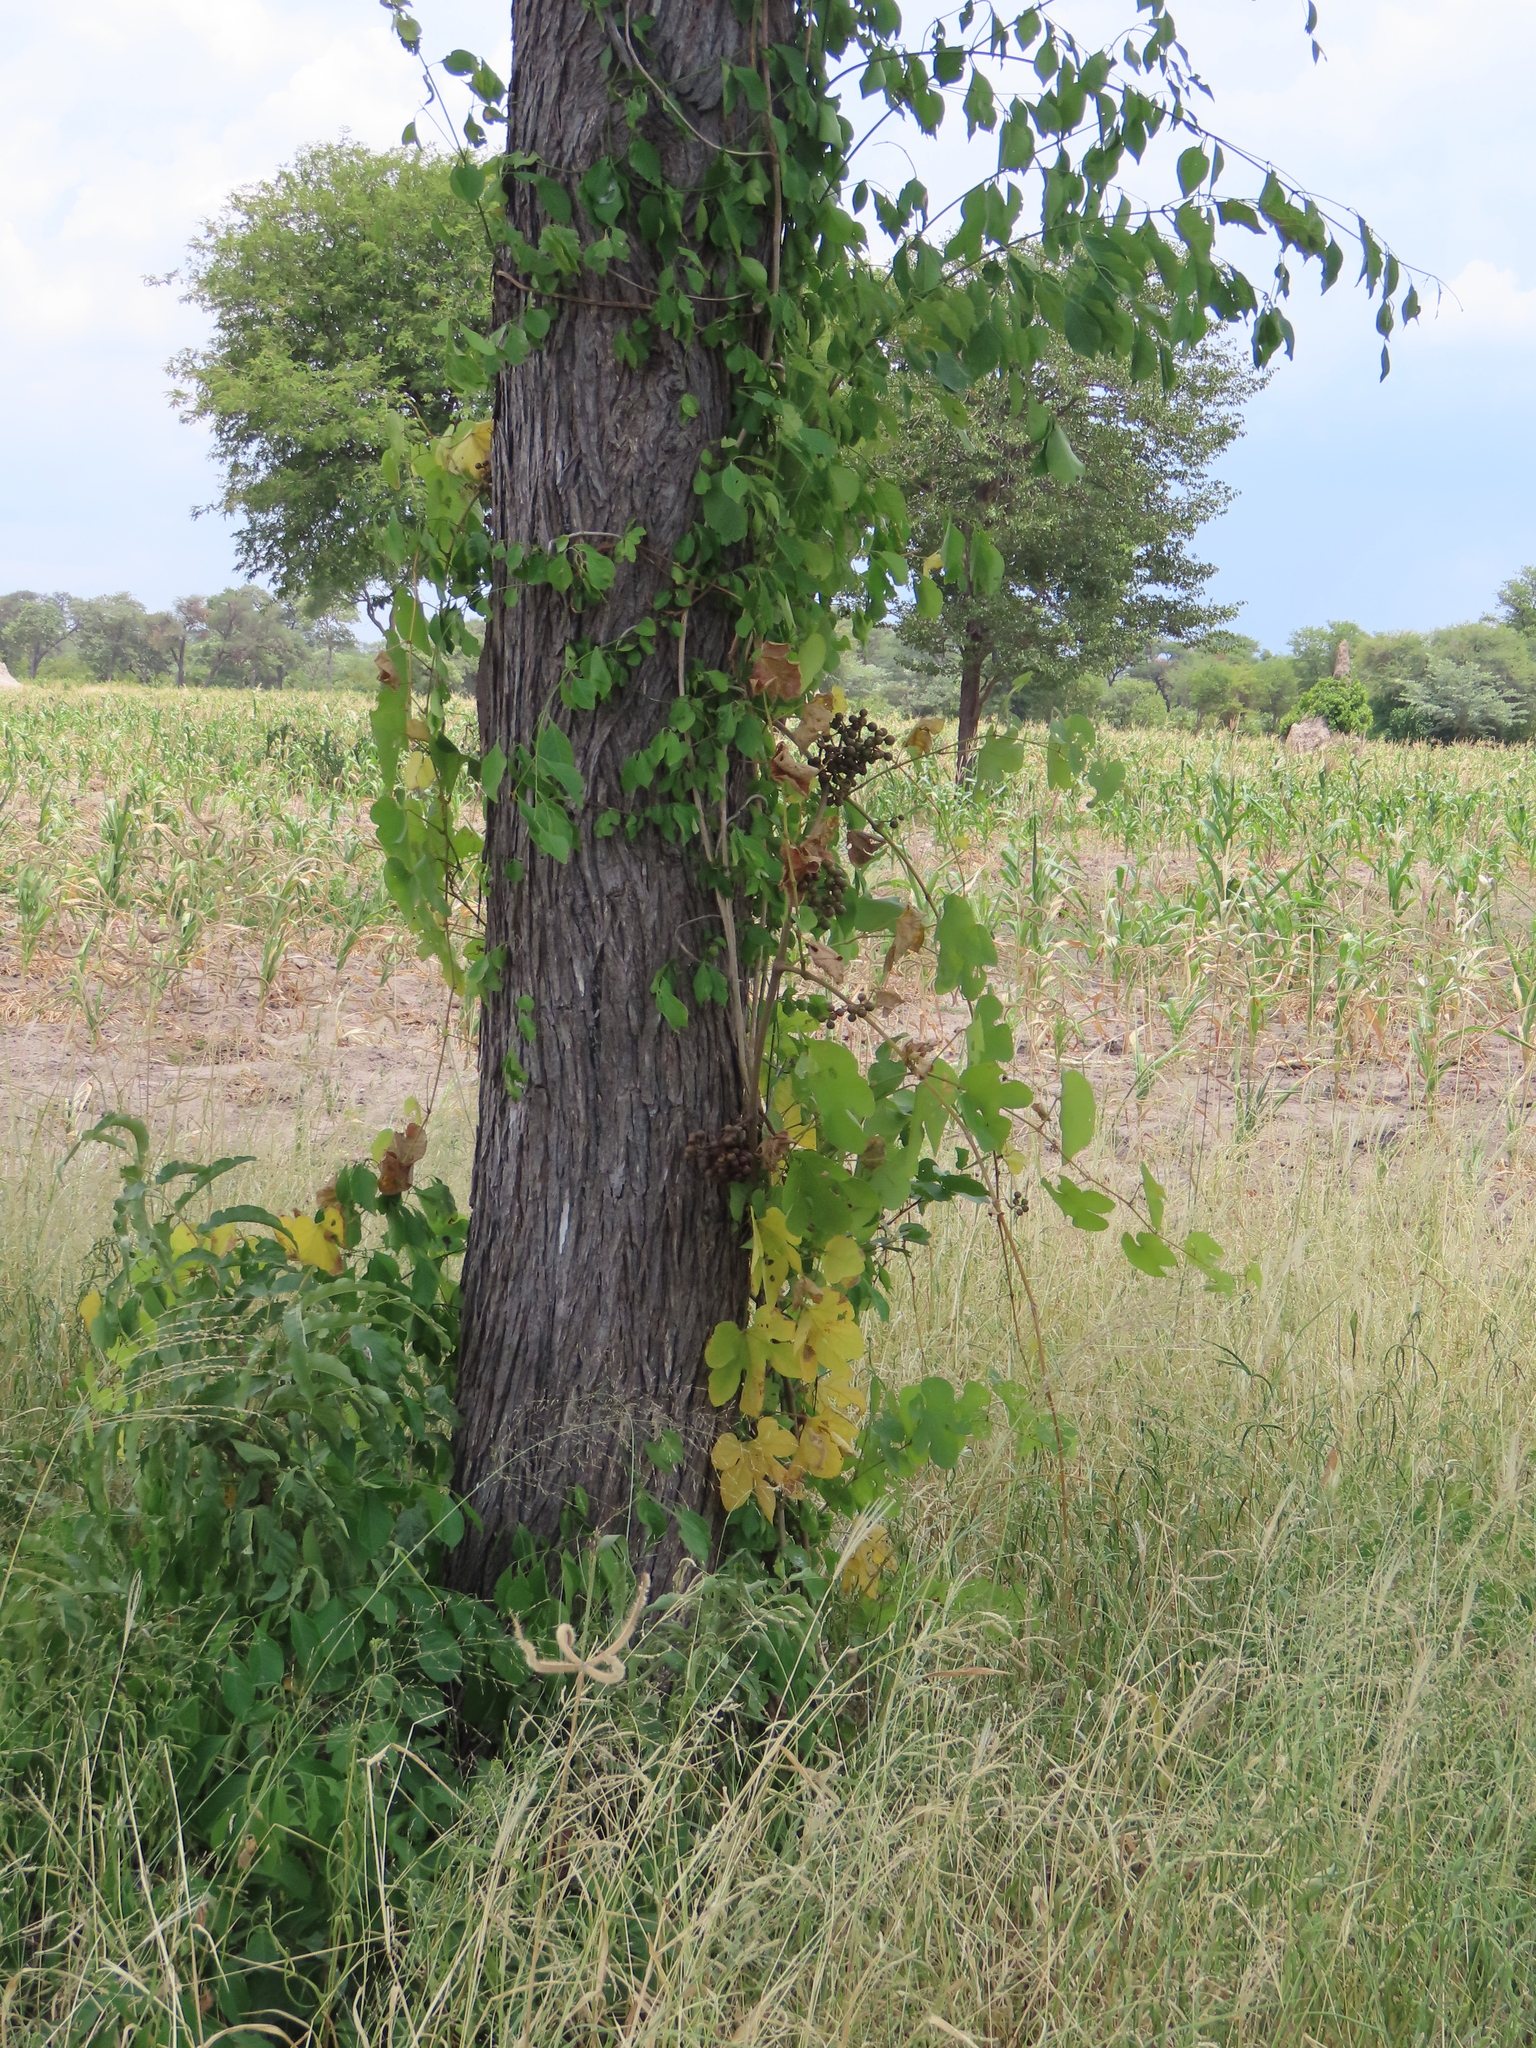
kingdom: Plantae
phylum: Tracheophyta
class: Magnoliopsida
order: Vitales
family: Vitaceae
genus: Ampelocissus
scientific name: Ampelocissus africana
